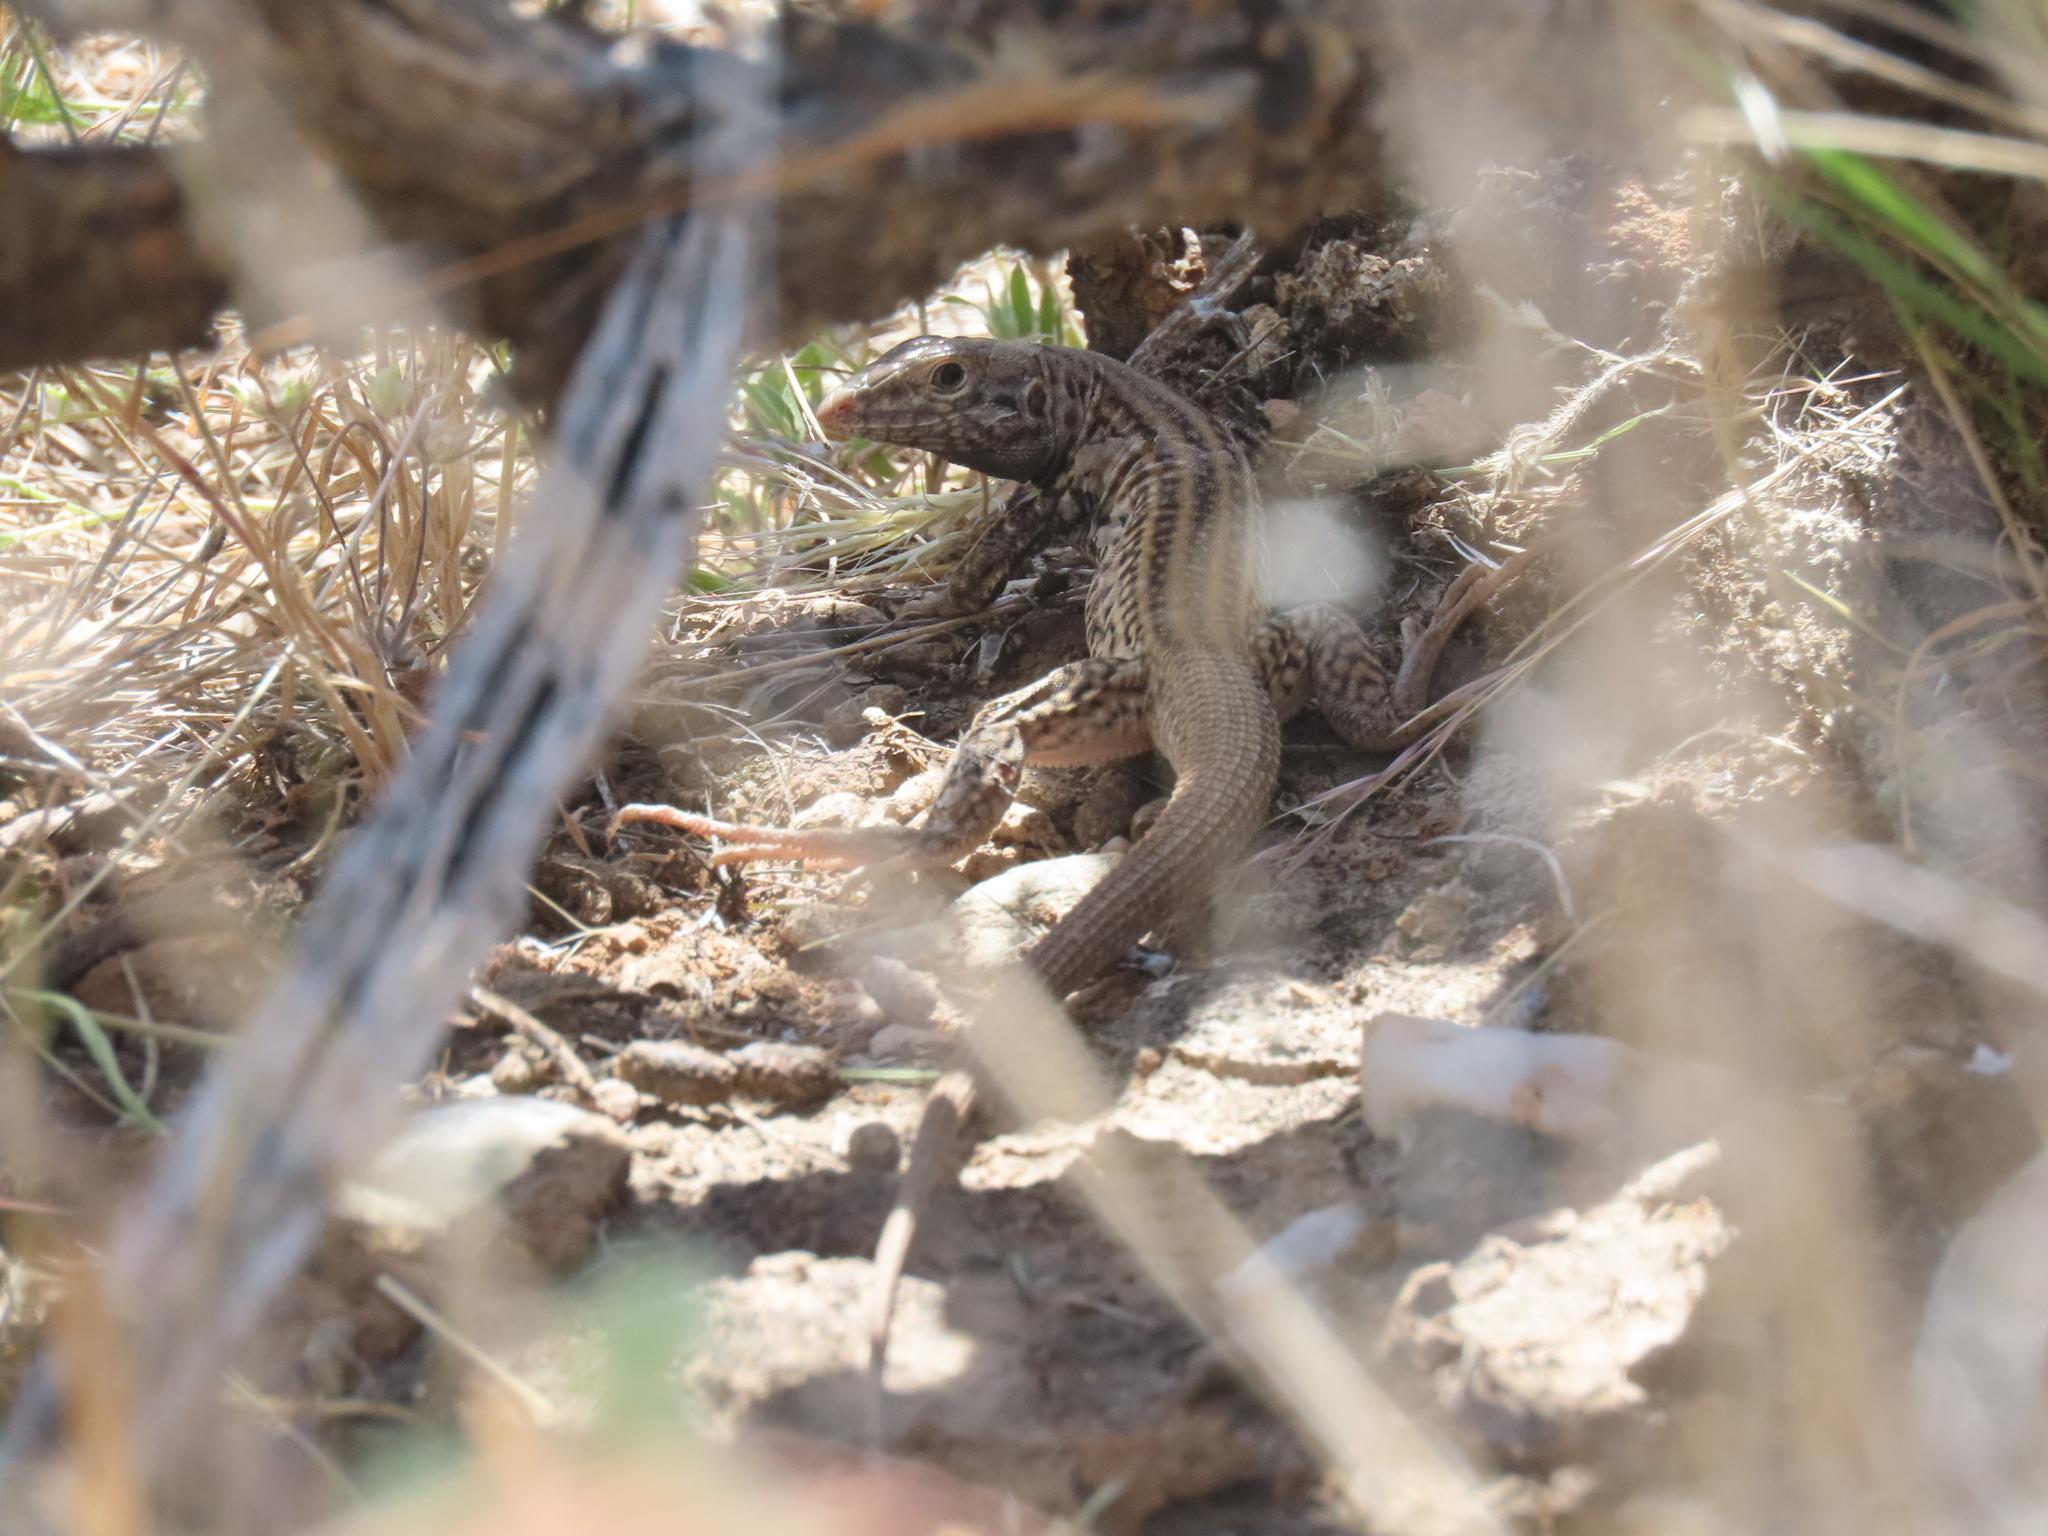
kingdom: Animalia
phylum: Chordata
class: Squamata
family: Teiidae
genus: Aspidoscelis
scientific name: Aspidoscelis tigris
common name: Tiger whiptail
